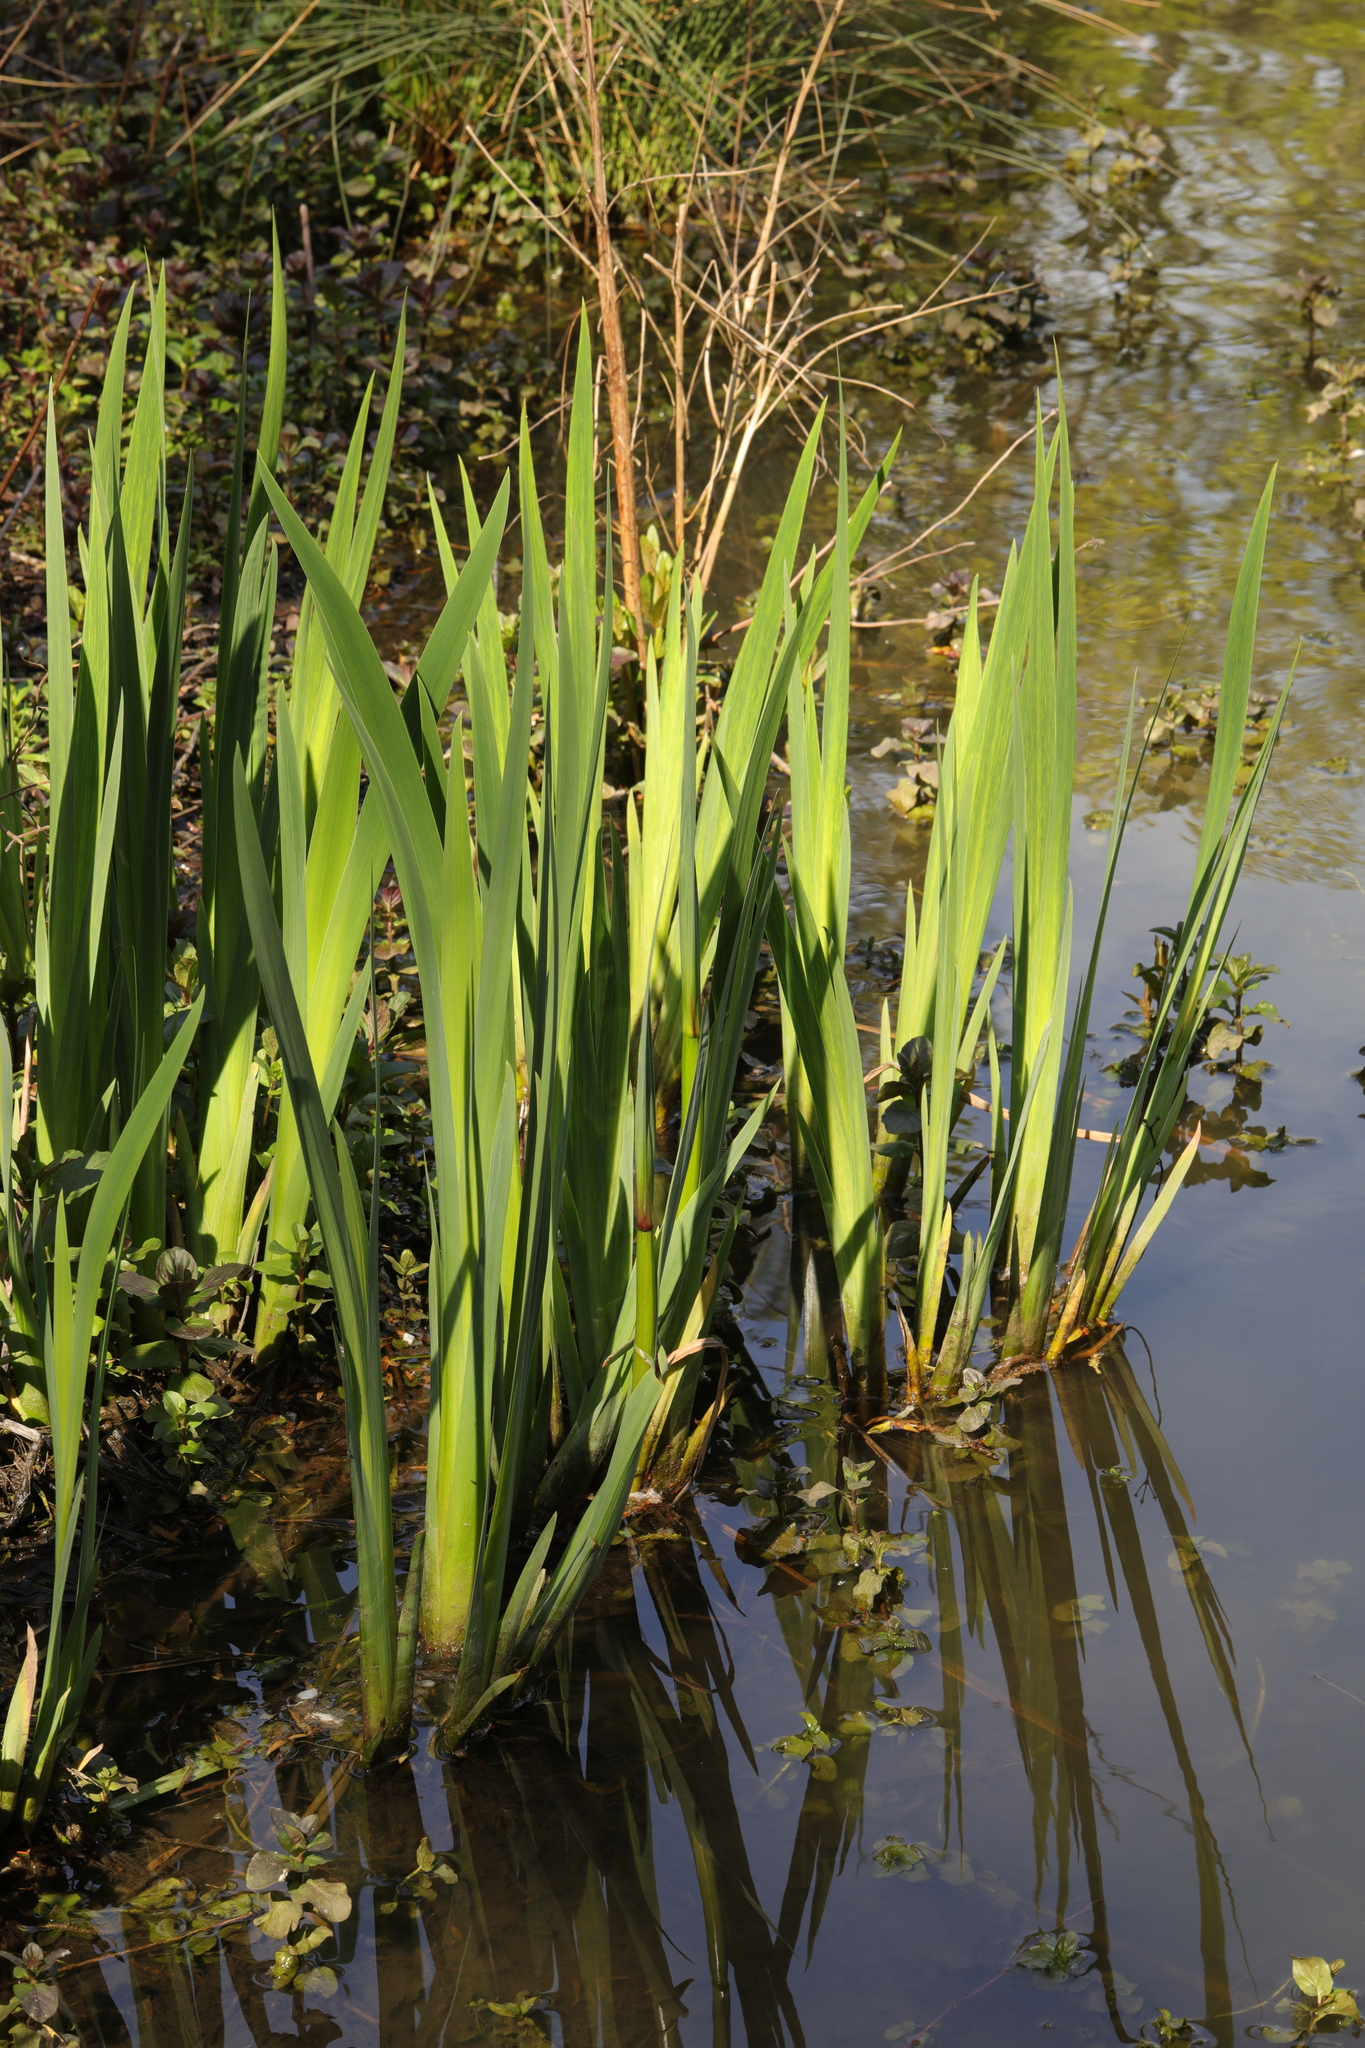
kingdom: Plantae
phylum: Tracheophyta
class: Liliopsida
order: Asparagales
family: Iridaceae
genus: Iris
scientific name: Iris pseudacorus
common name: Yellow flag
